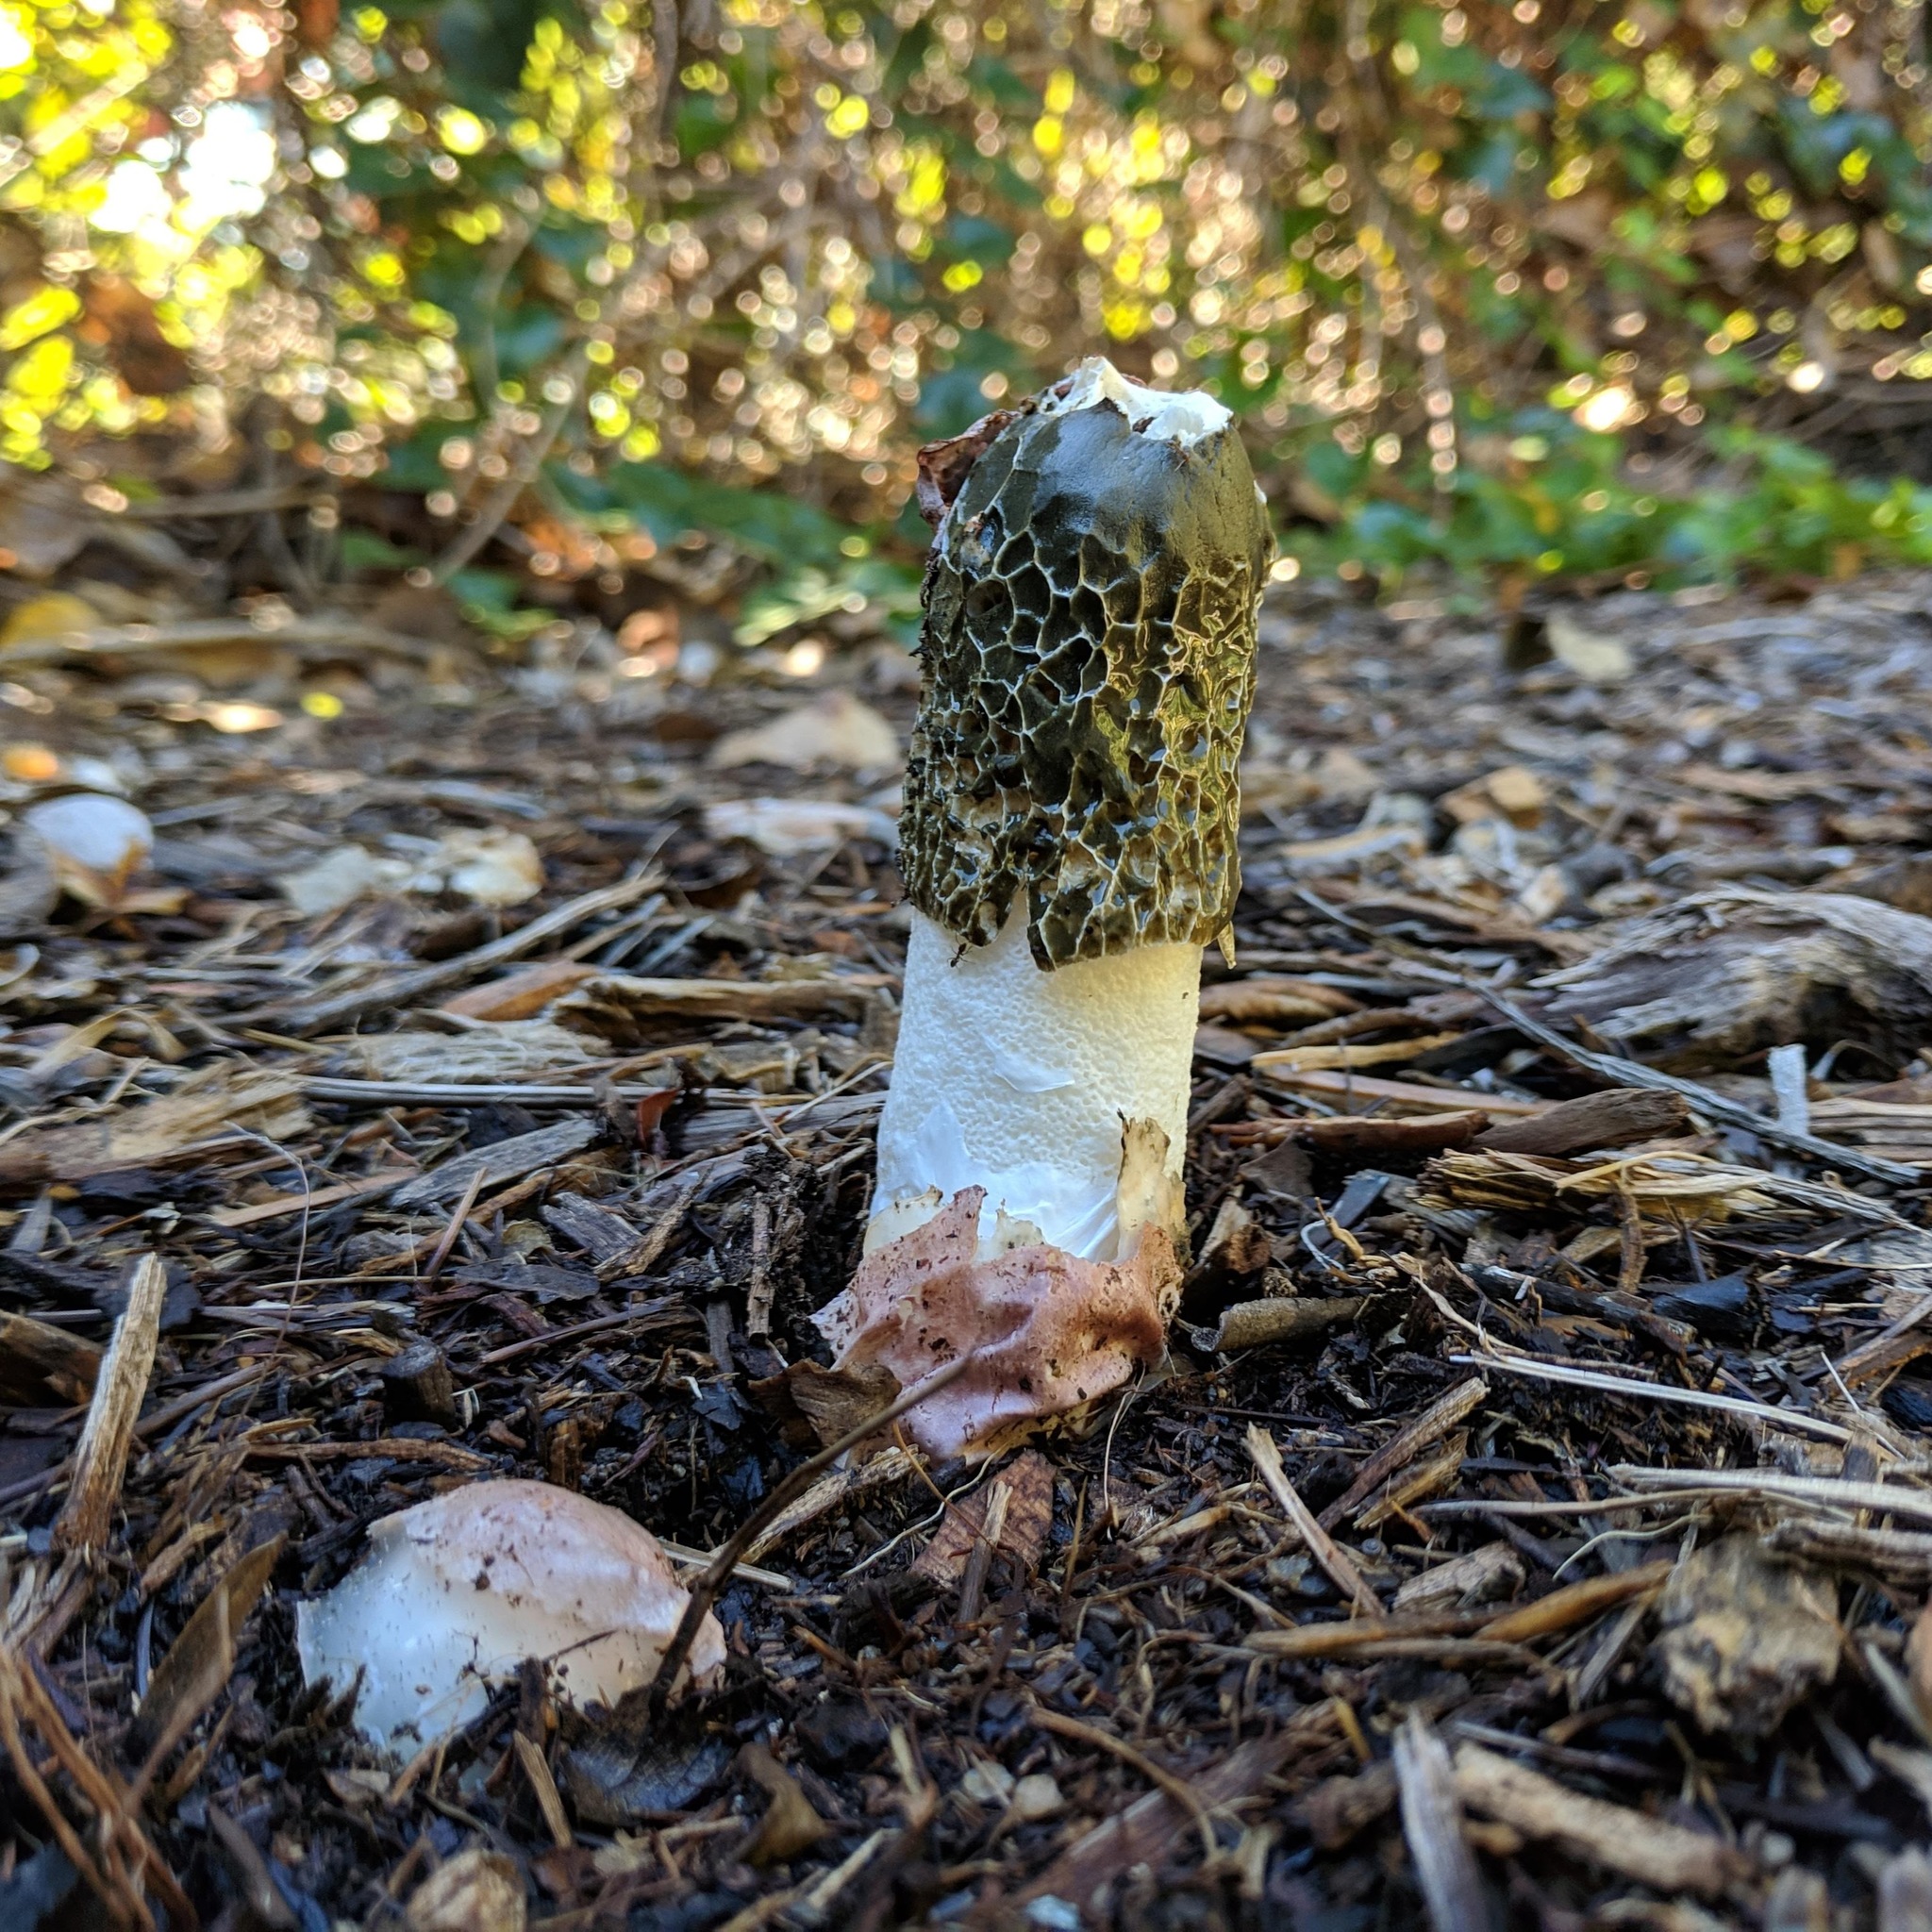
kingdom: Fungi
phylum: Basidiomycota
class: Agaricomycetes
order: Phallales
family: Phallaceae
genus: Phallus
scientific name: Phallus hadriani
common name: Sand stinkhorn
